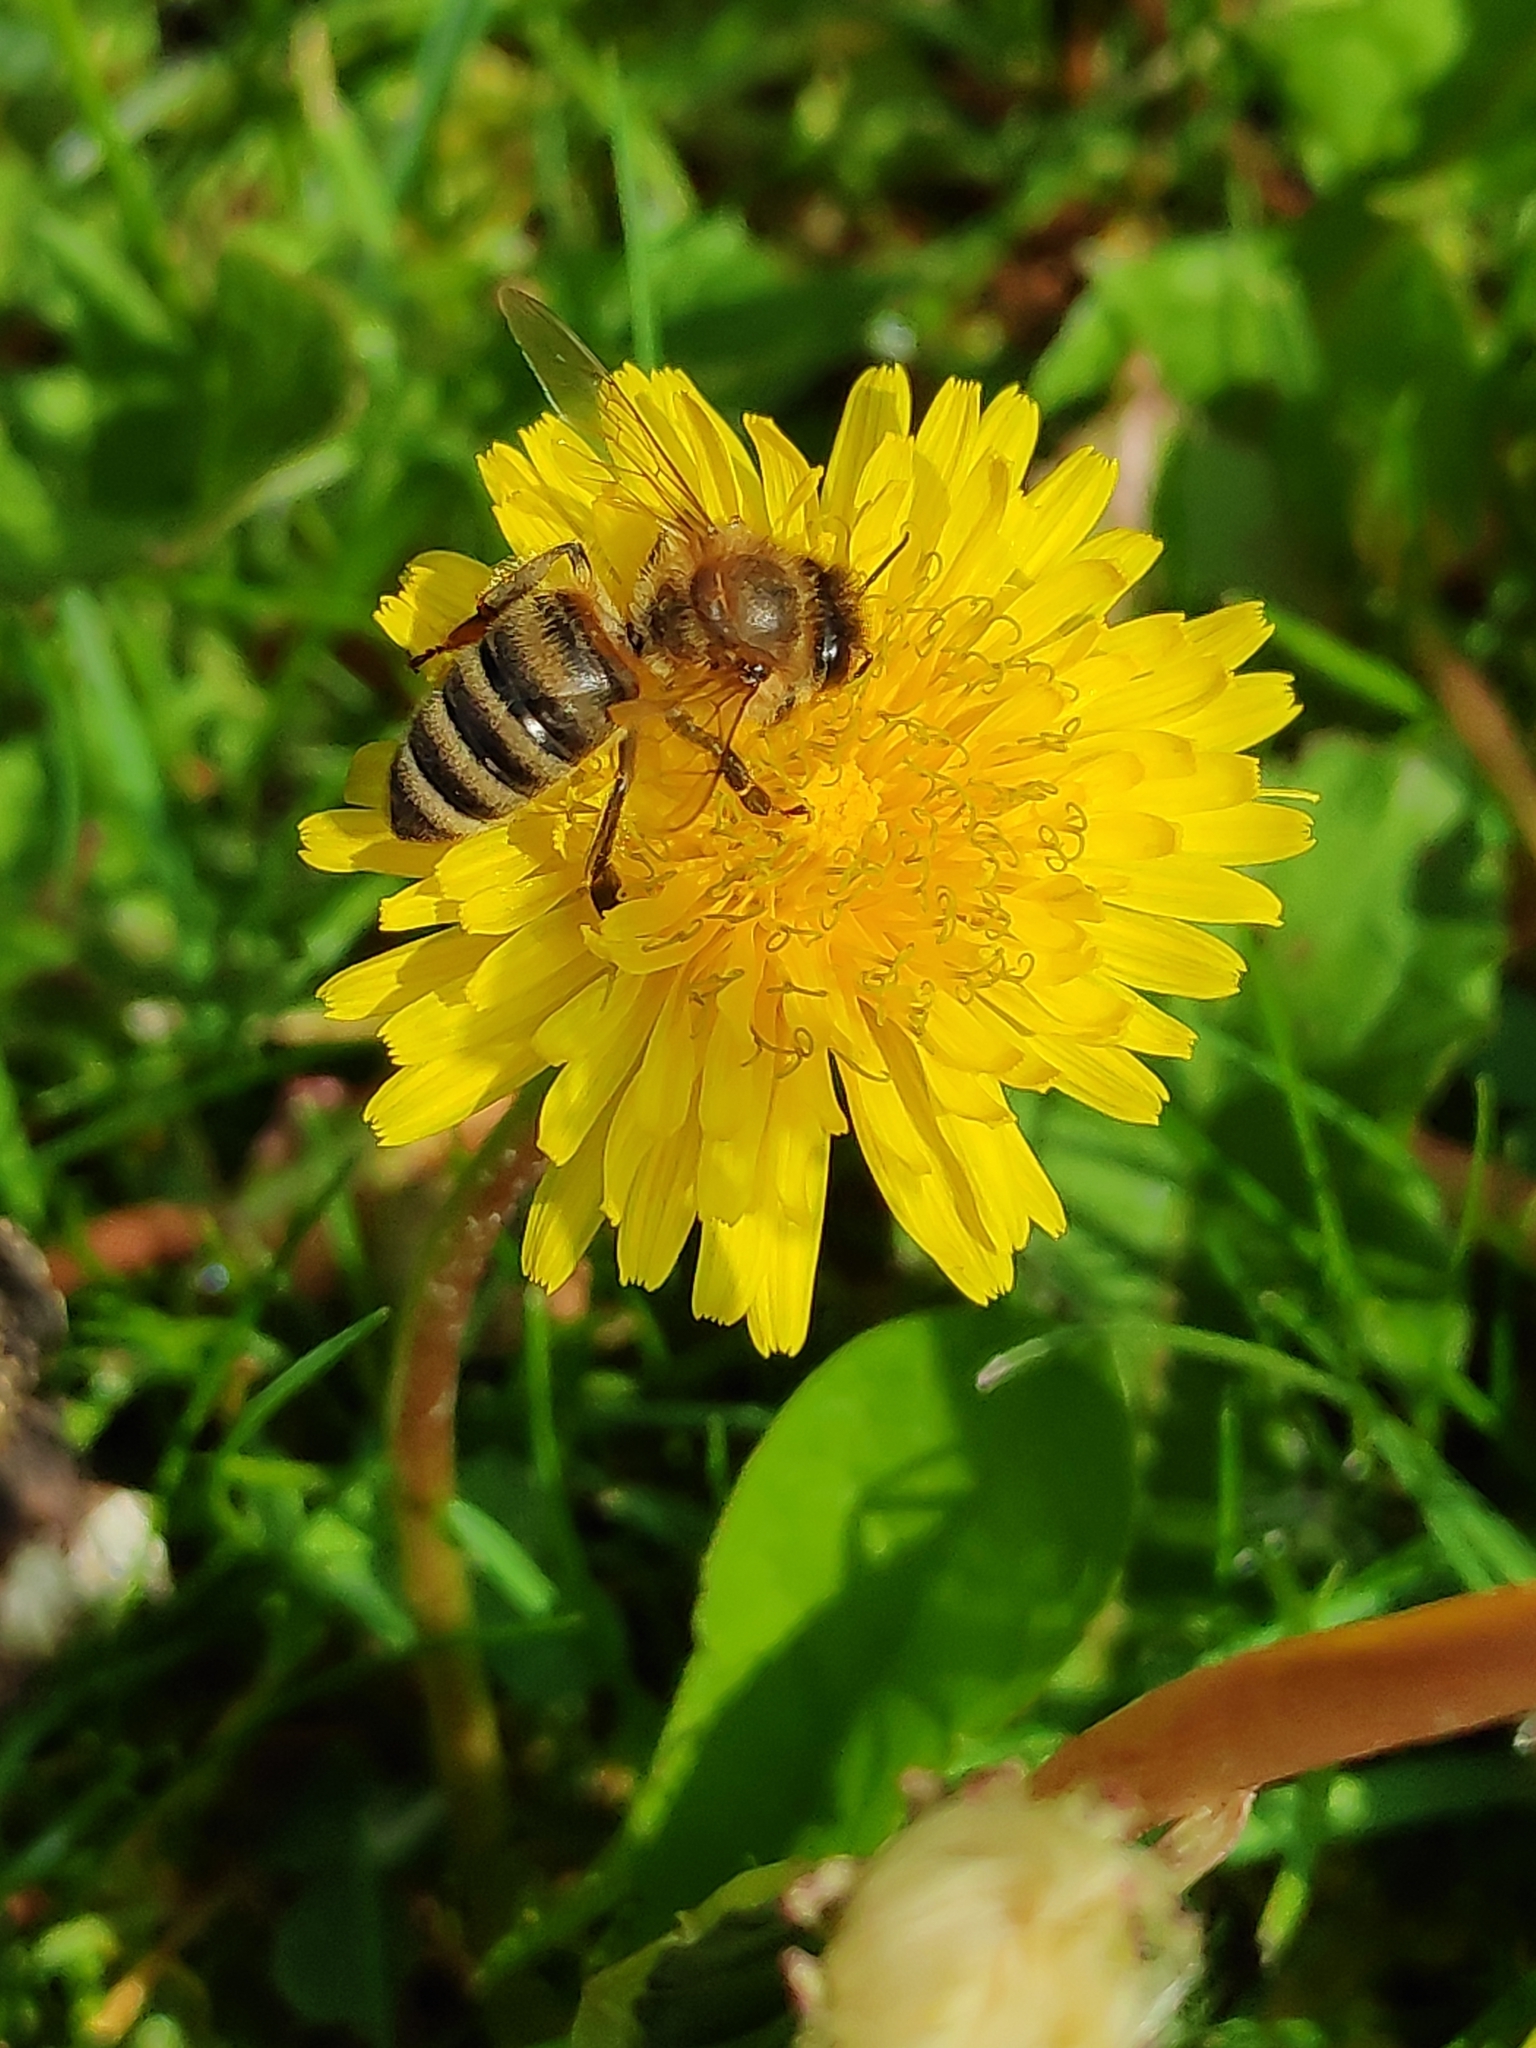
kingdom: Animalia
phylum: Arthropoda
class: Insecta
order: Hymenoptera
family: Apidae
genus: Apis
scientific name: Apis mellifera
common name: Honey bee
